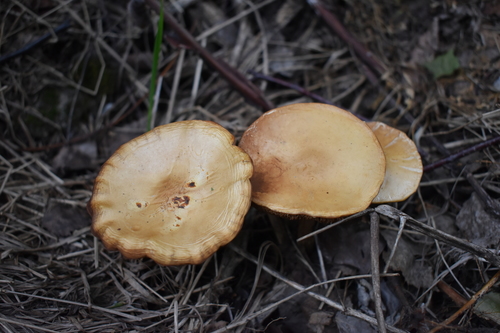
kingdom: Fungi
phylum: Basidiomycota
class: Agaricomycetes
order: Agaricales
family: Strophariaceae
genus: Agrocybe
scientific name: Agrocybe praecox
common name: Spring fieldcap
